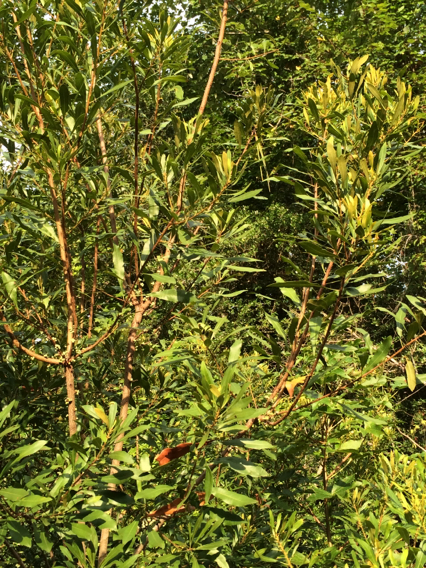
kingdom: Plantae
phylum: Tracheophyta
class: Magnoliopsida
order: Fagales
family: Myricaceae
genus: Morella
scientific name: Morella cerifera
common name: Wax myrtle
